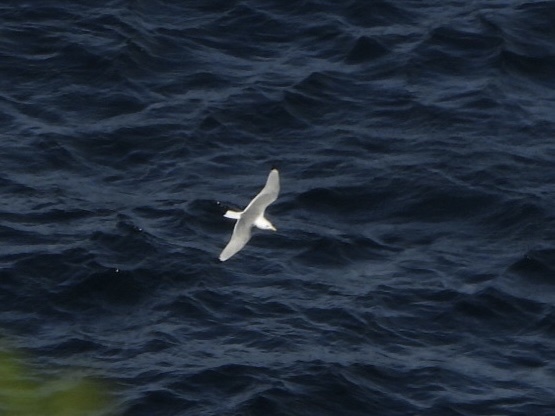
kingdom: Animalia
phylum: Chordata
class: Aves
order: Charadriiformes
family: Laridae
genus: Rissa
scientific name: Rissa tridactyla
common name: Black-legged kittiwake
